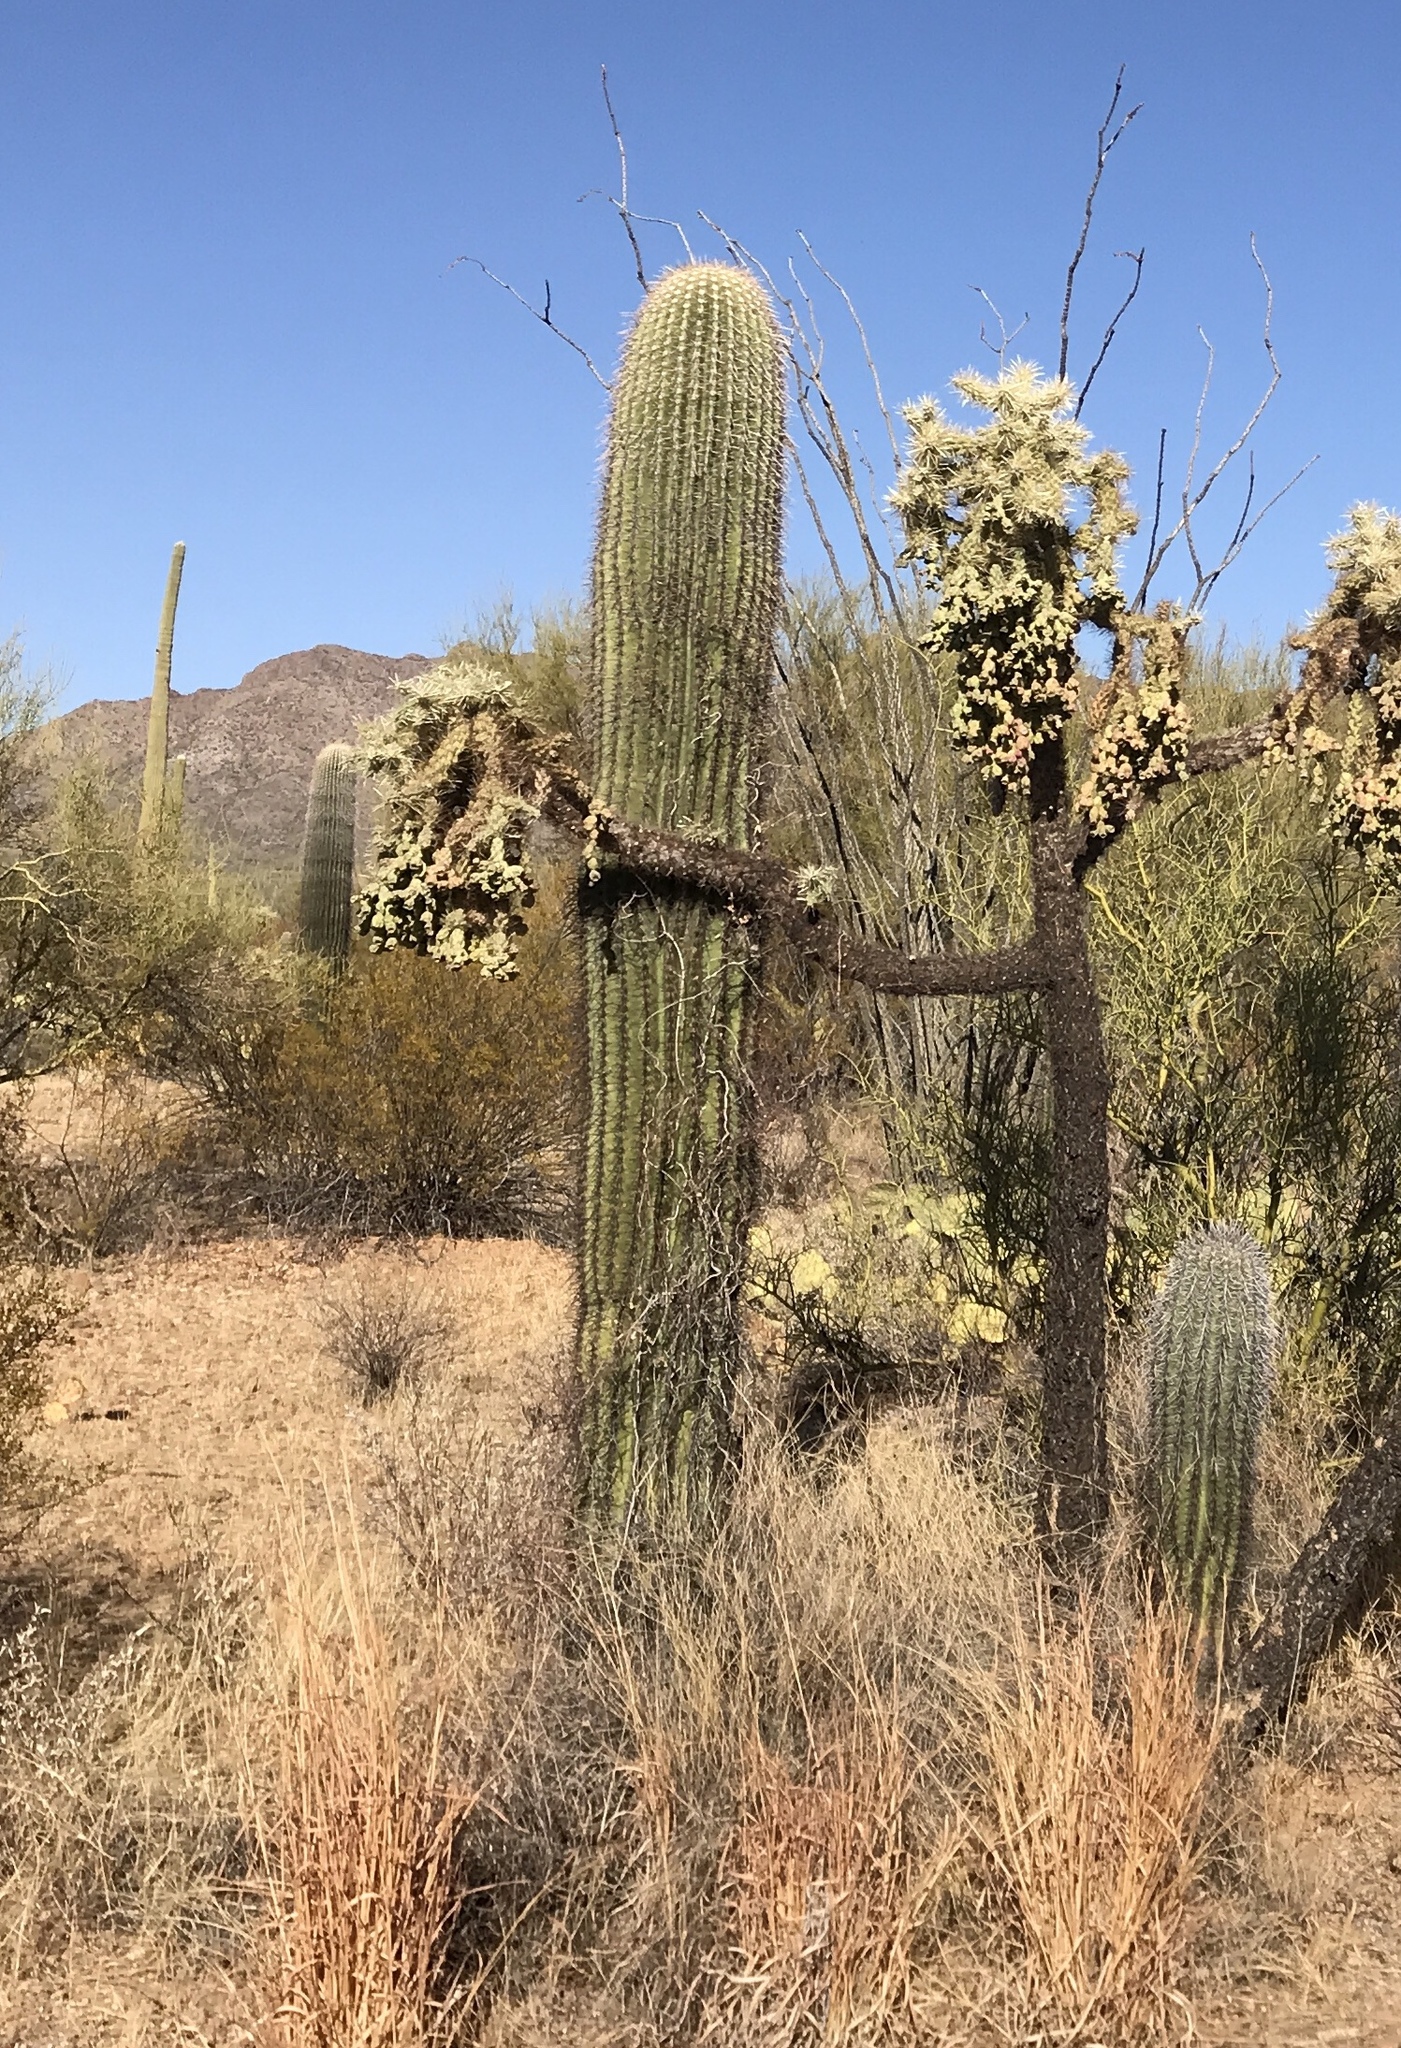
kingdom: Plantae
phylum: Tracheophyta
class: Magnoliopsida
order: Caryophyllales
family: Cactaceae
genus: Carnegiea
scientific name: Carnegiea gigantea
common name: Saguaro
